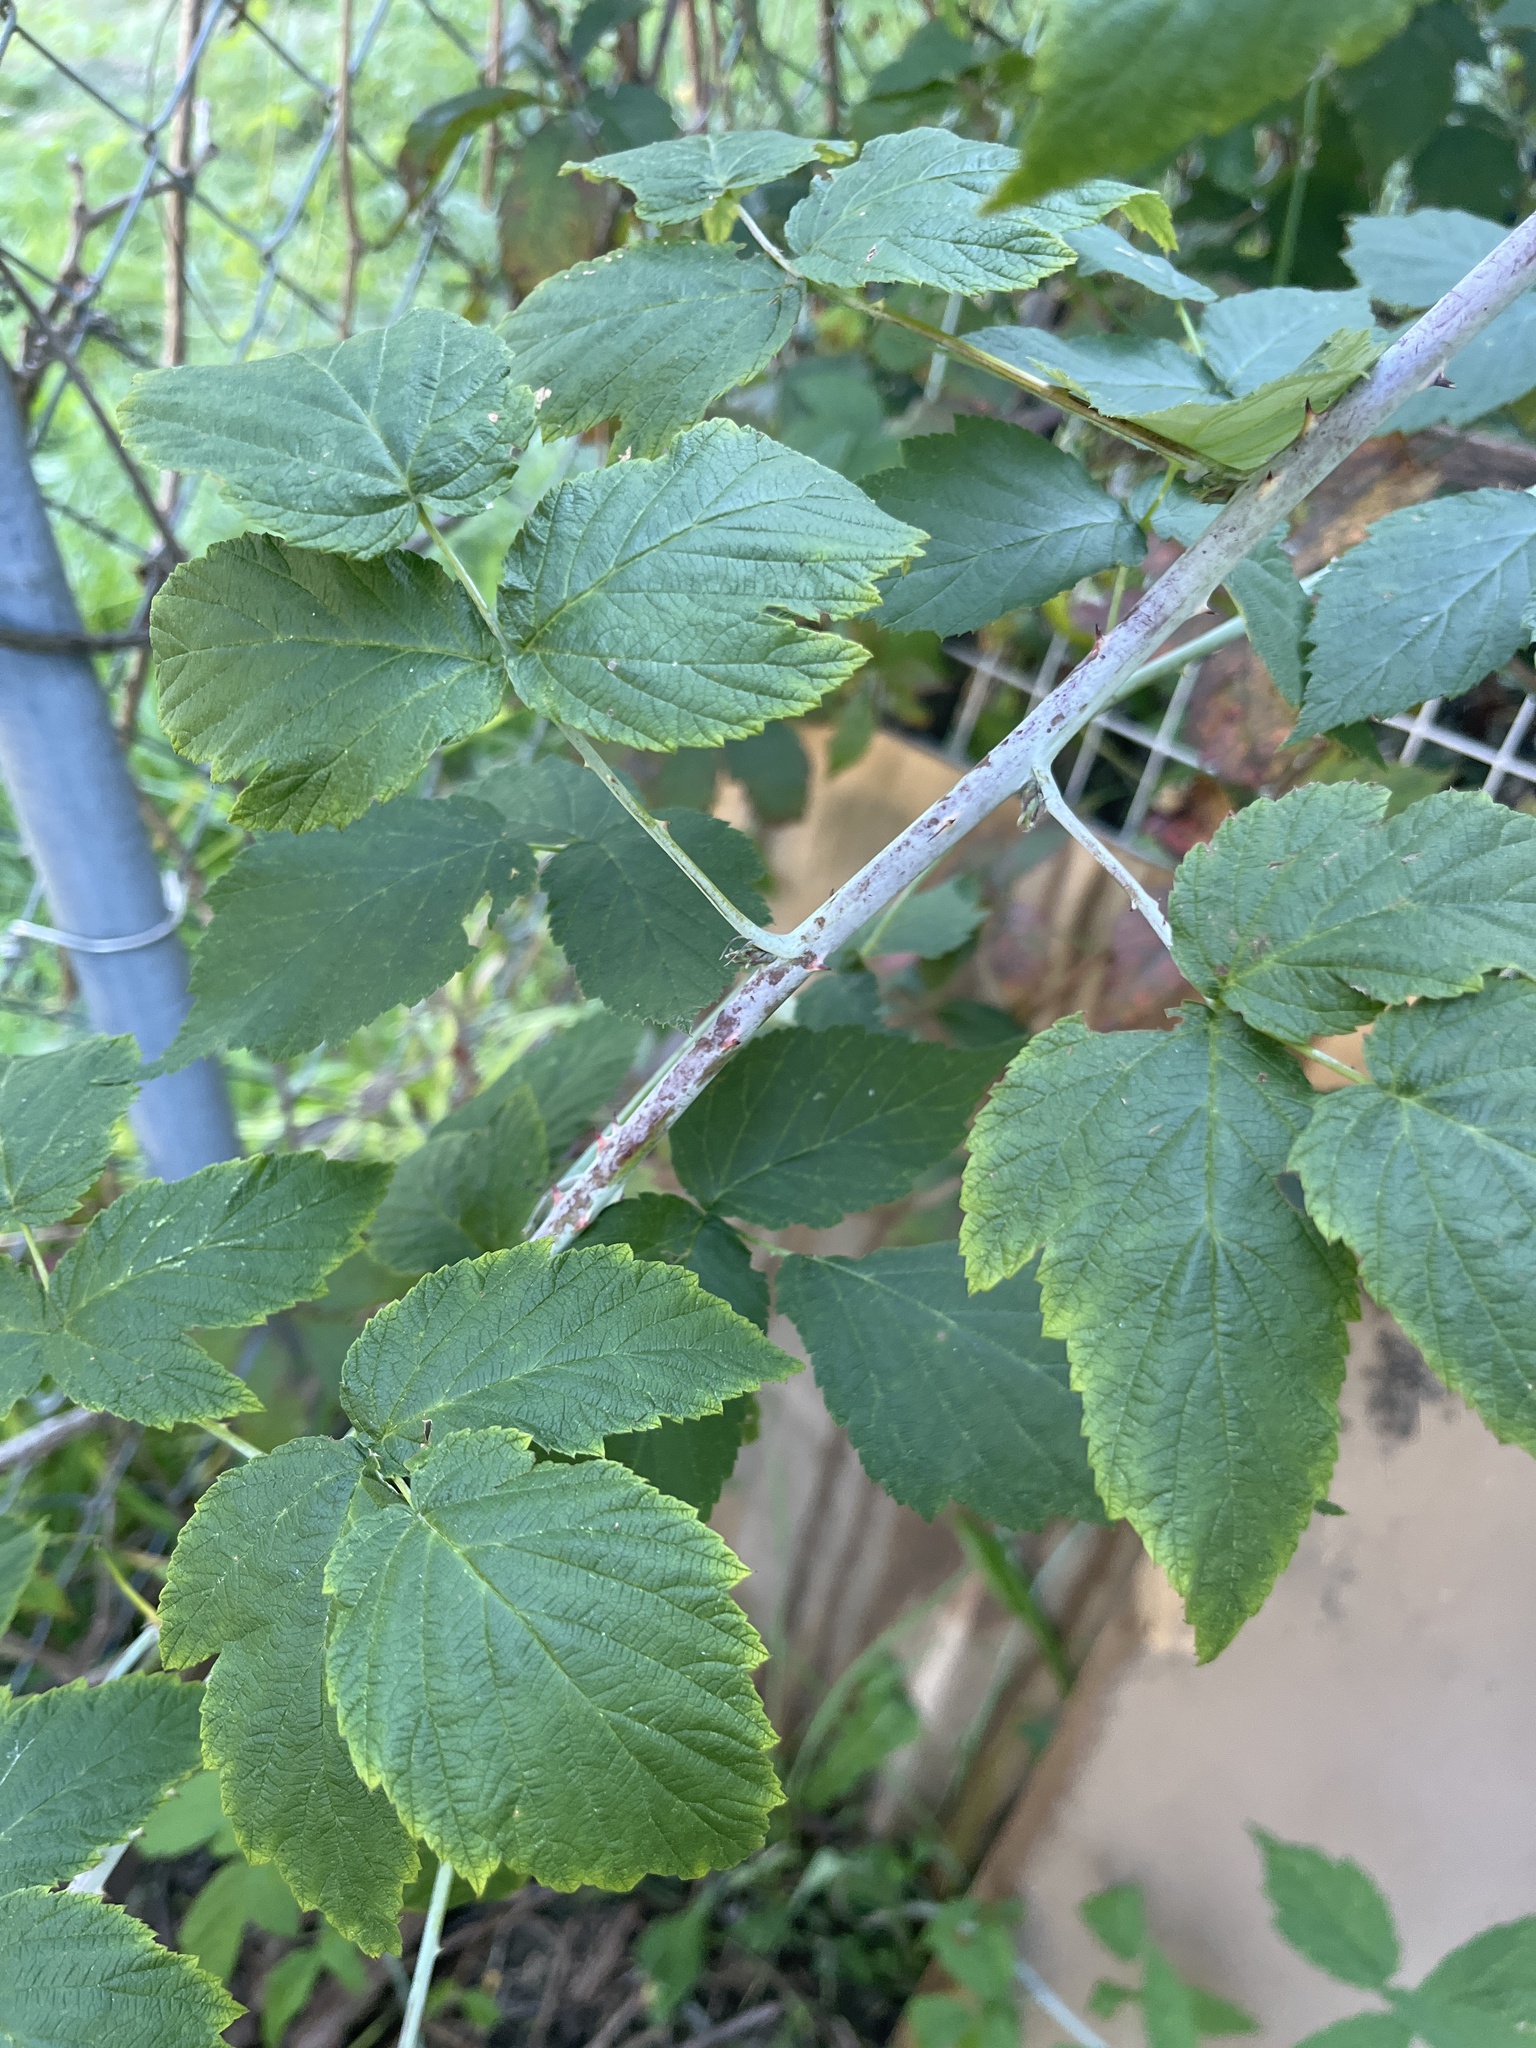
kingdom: Plantae
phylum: Tracheophyta
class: Magnoliopsida
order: Rosales
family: Rosaceae
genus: Rubus
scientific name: Rubus occidentalis
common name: Black raspberry
